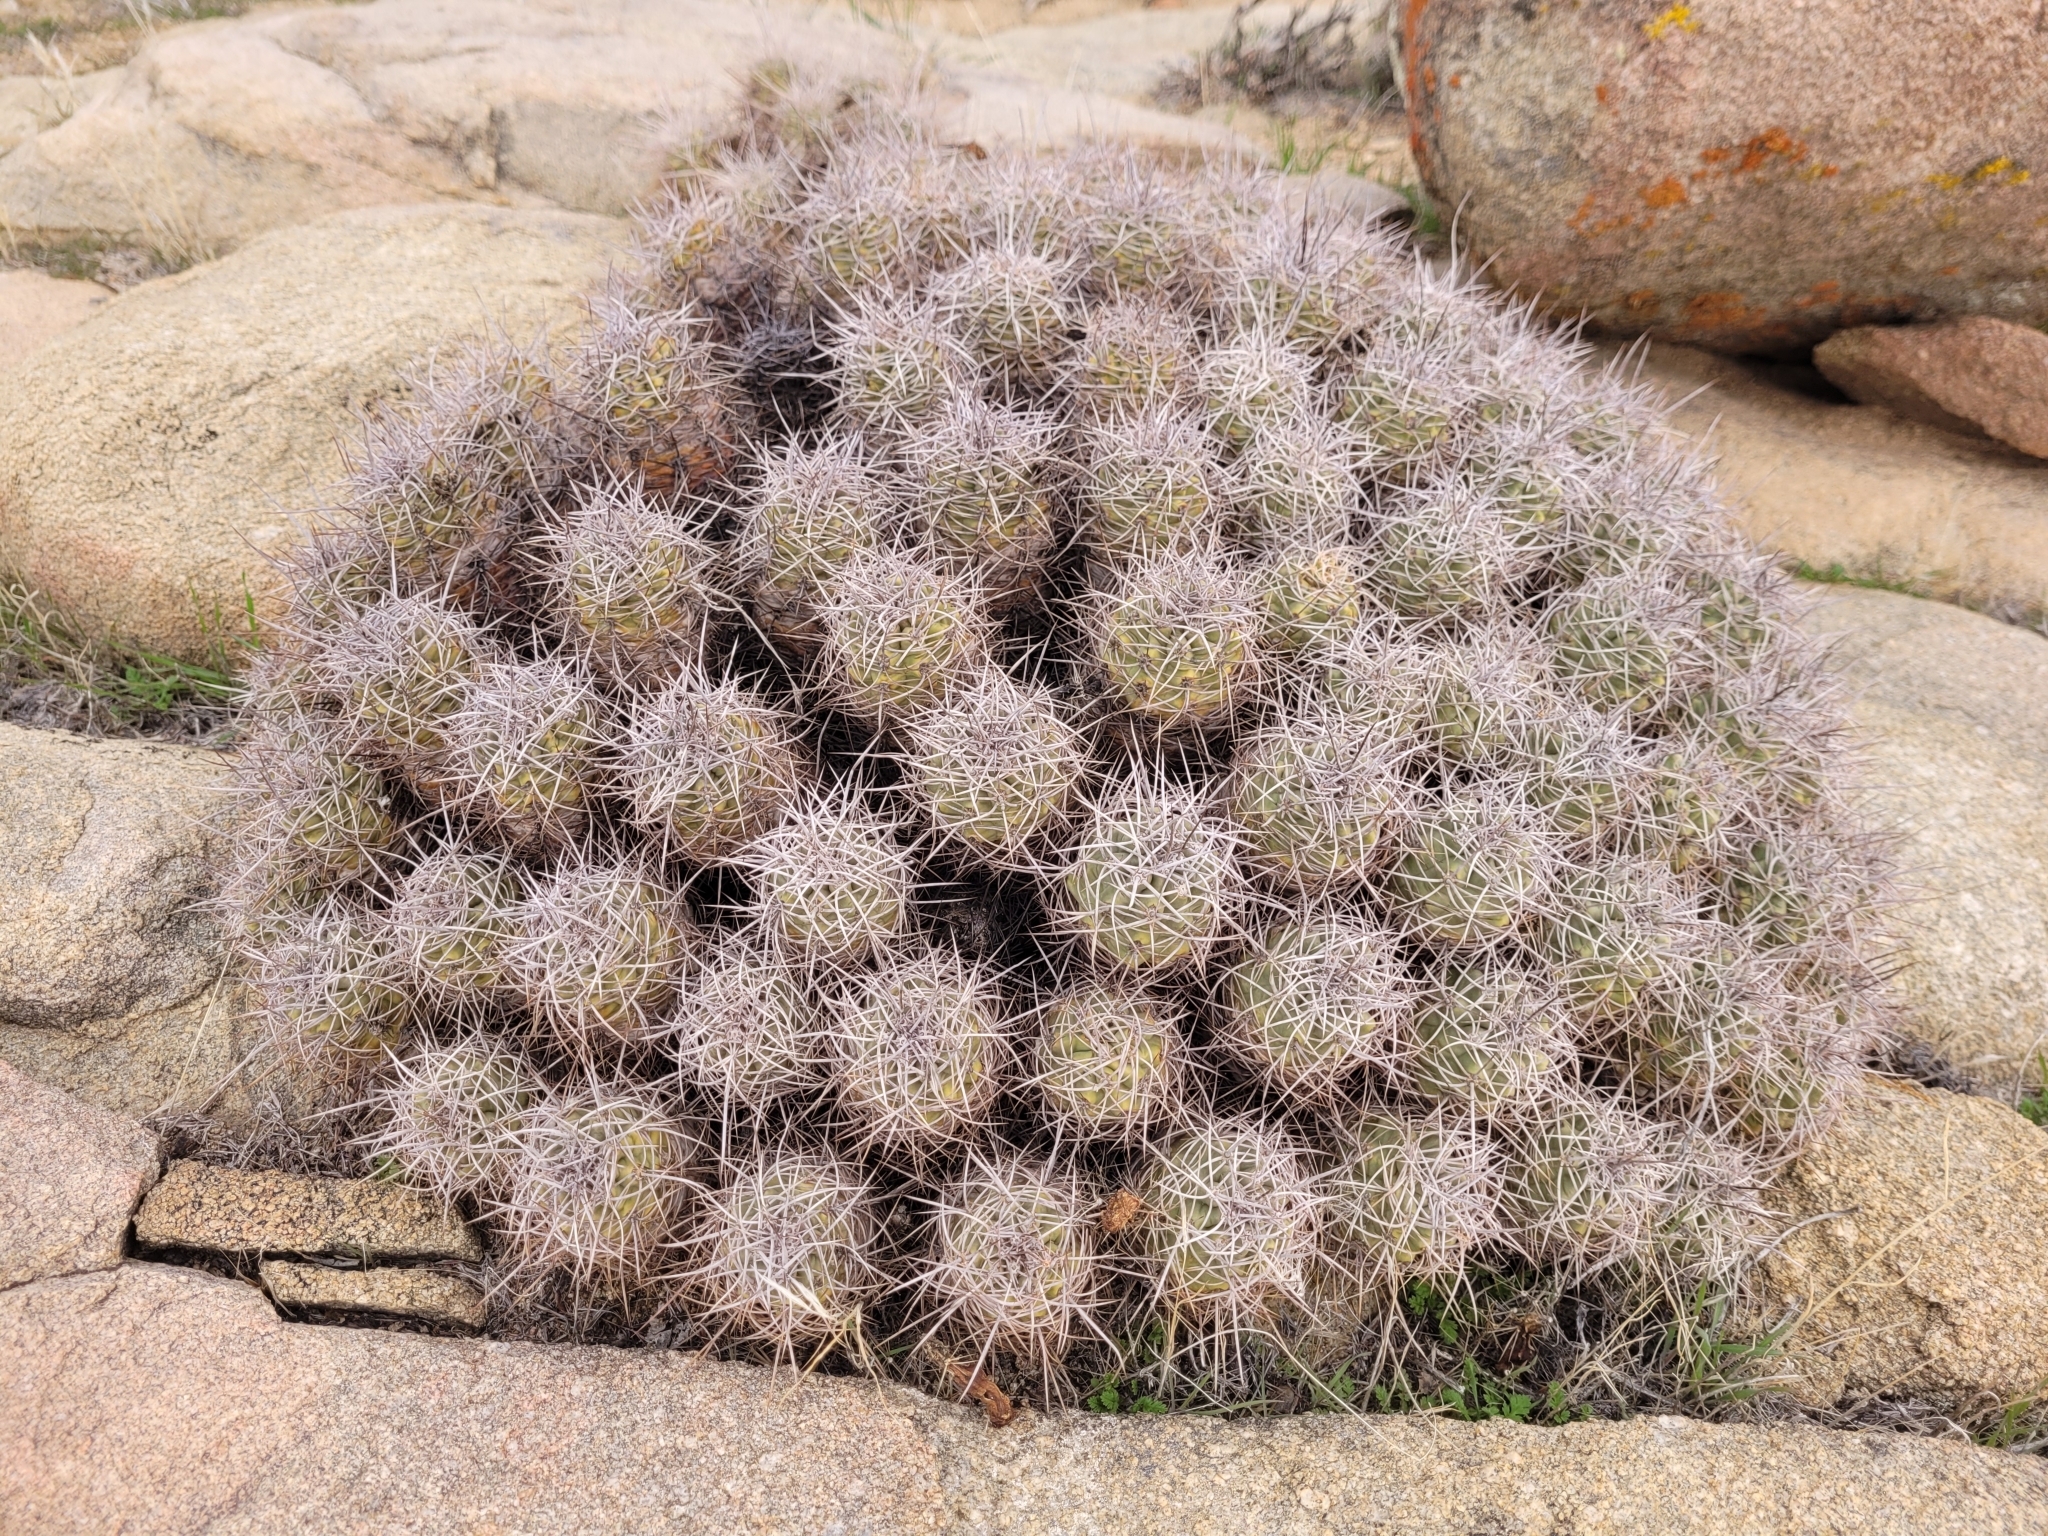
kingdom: Plantae
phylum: Tracheophyta
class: Magnoliopsida
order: Caryophyllales
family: Cactaceae
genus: Echinocereus
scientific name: Echinocereus triglochidiatus
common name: Claretcup hedgehog
